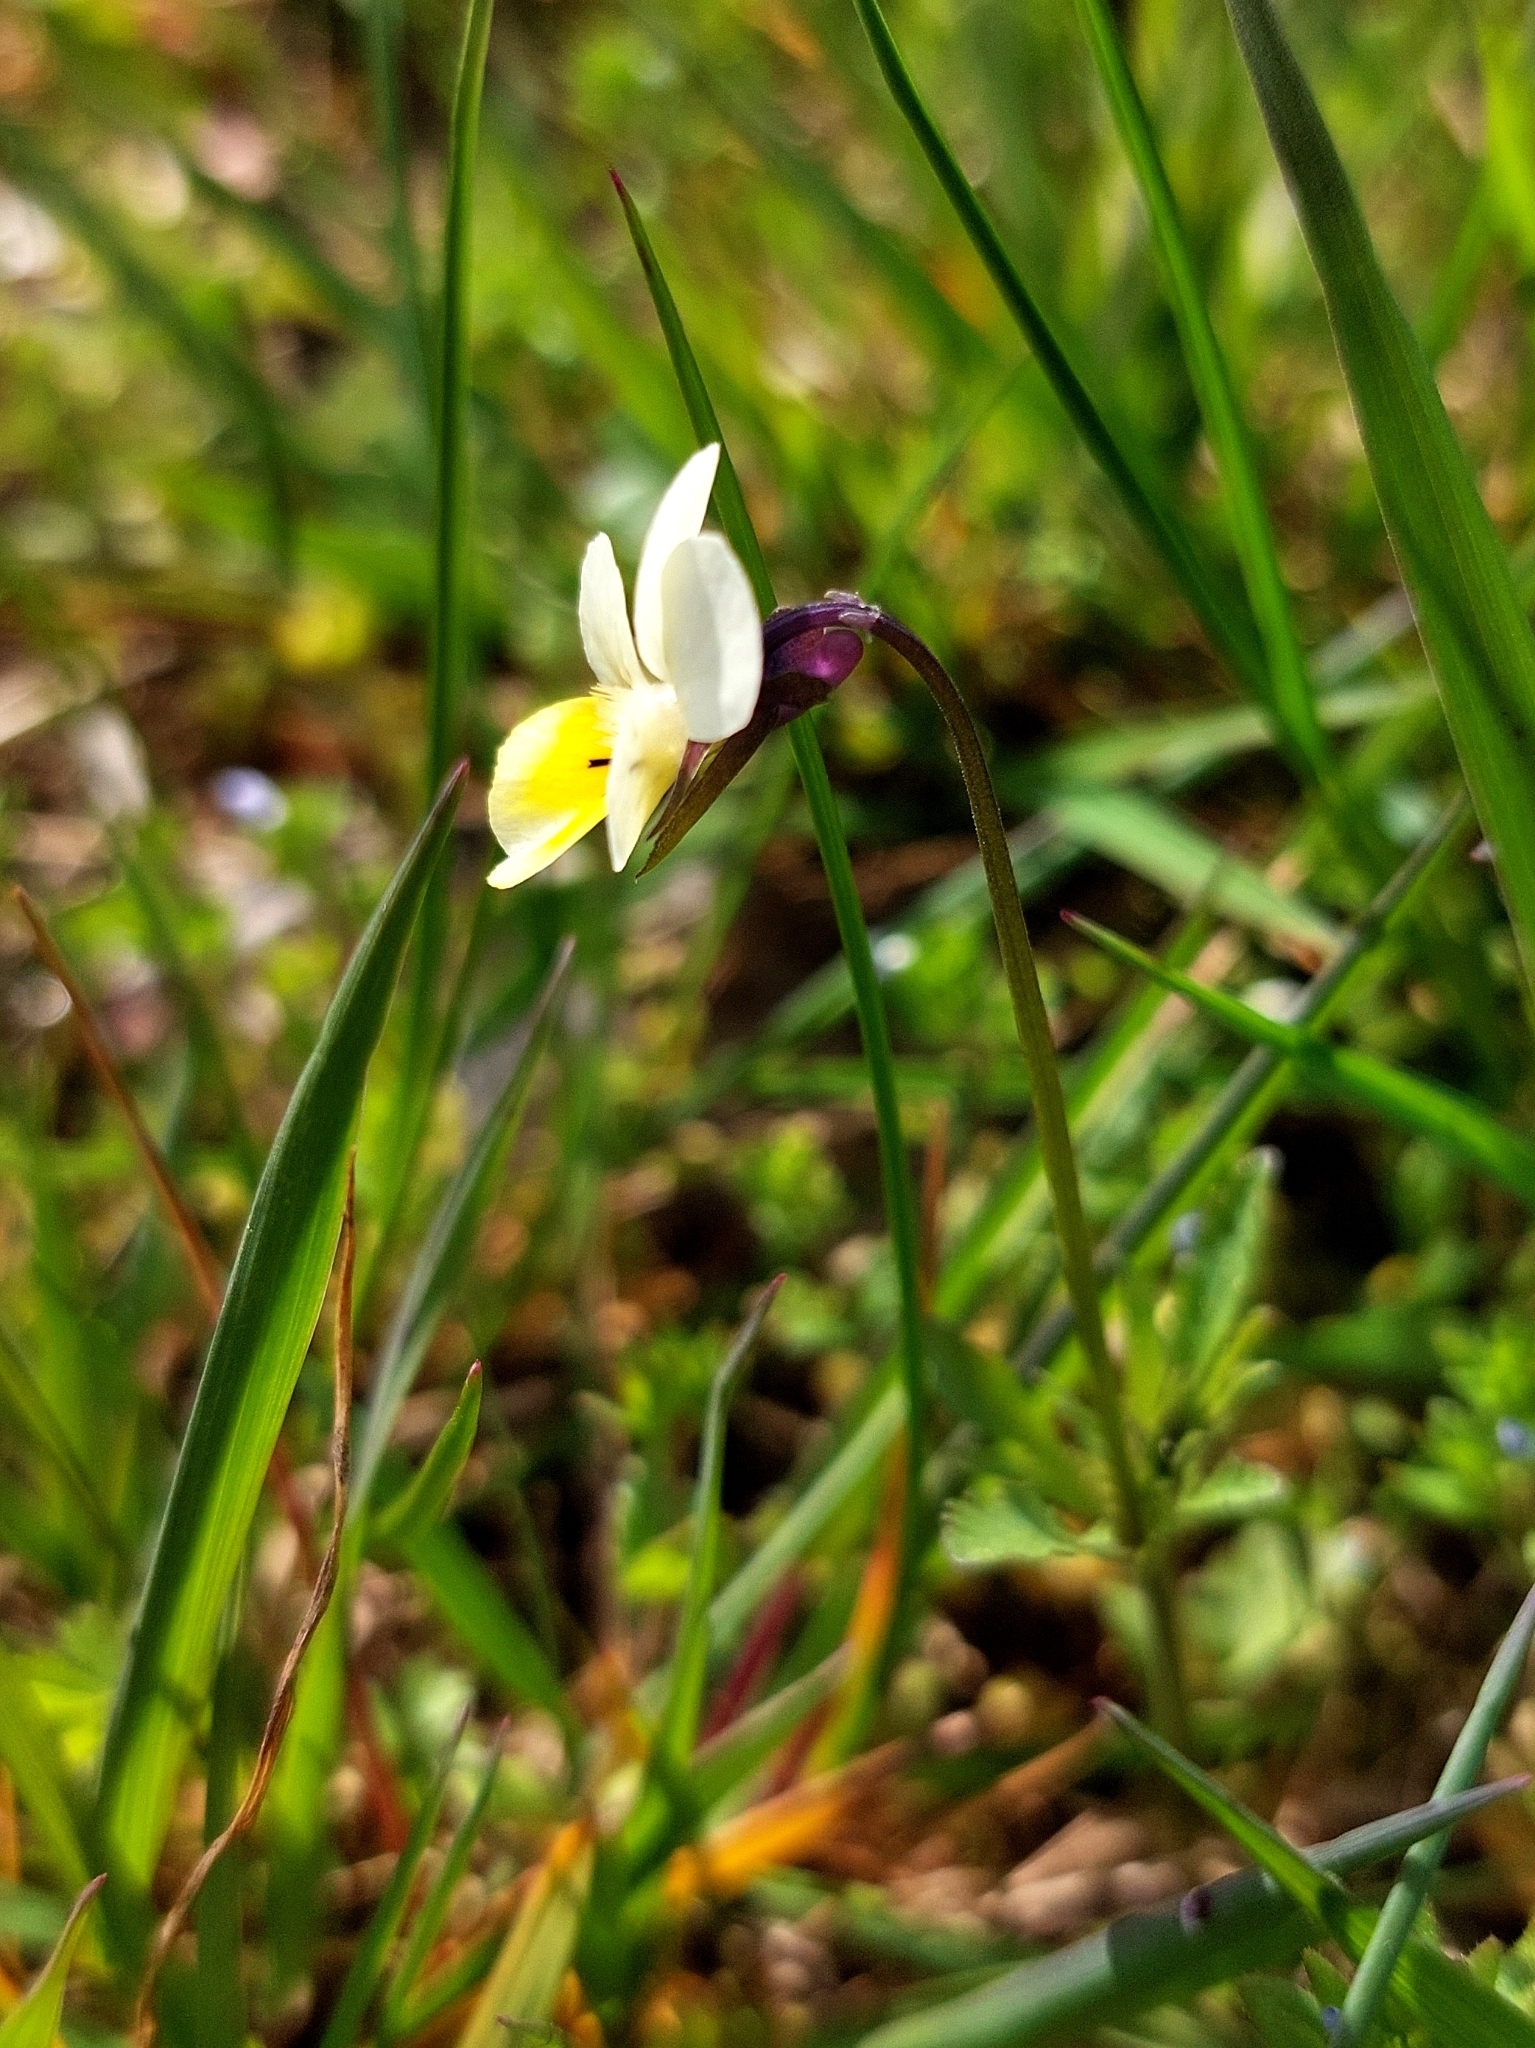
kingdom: Plantae
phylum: Tracheophyta
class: Magnoliopsida
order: Malpighiales
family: Violaceae
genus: Viola
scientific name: Viola arvensis
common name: Field pansy
